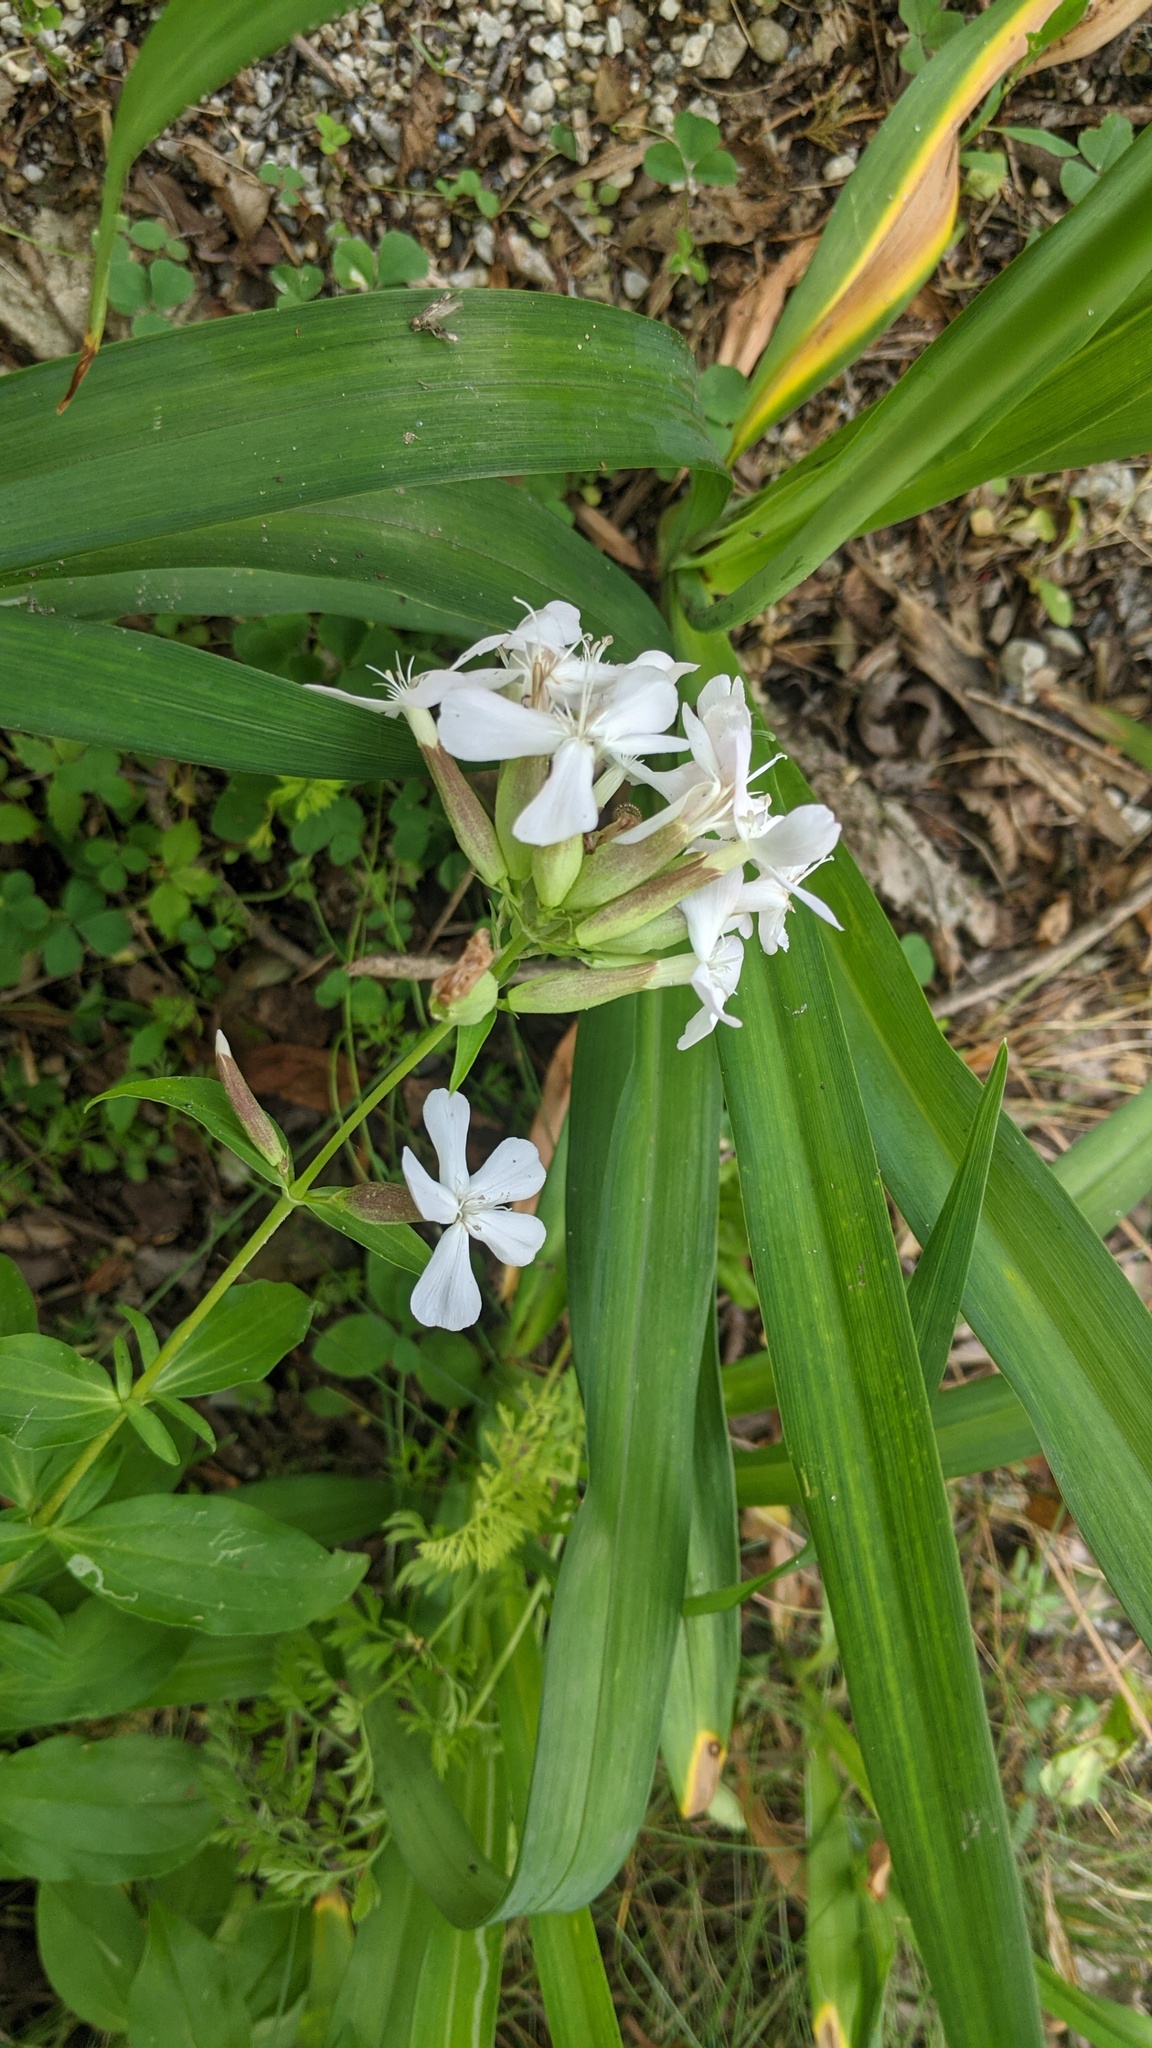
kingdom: Plantae
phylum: Tracheophyta
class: Magnoliopsida
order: Caryophyllales
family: Caryophyllaceae
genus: Saponaria
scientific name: Saponaria officinalis
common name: Soapwort
